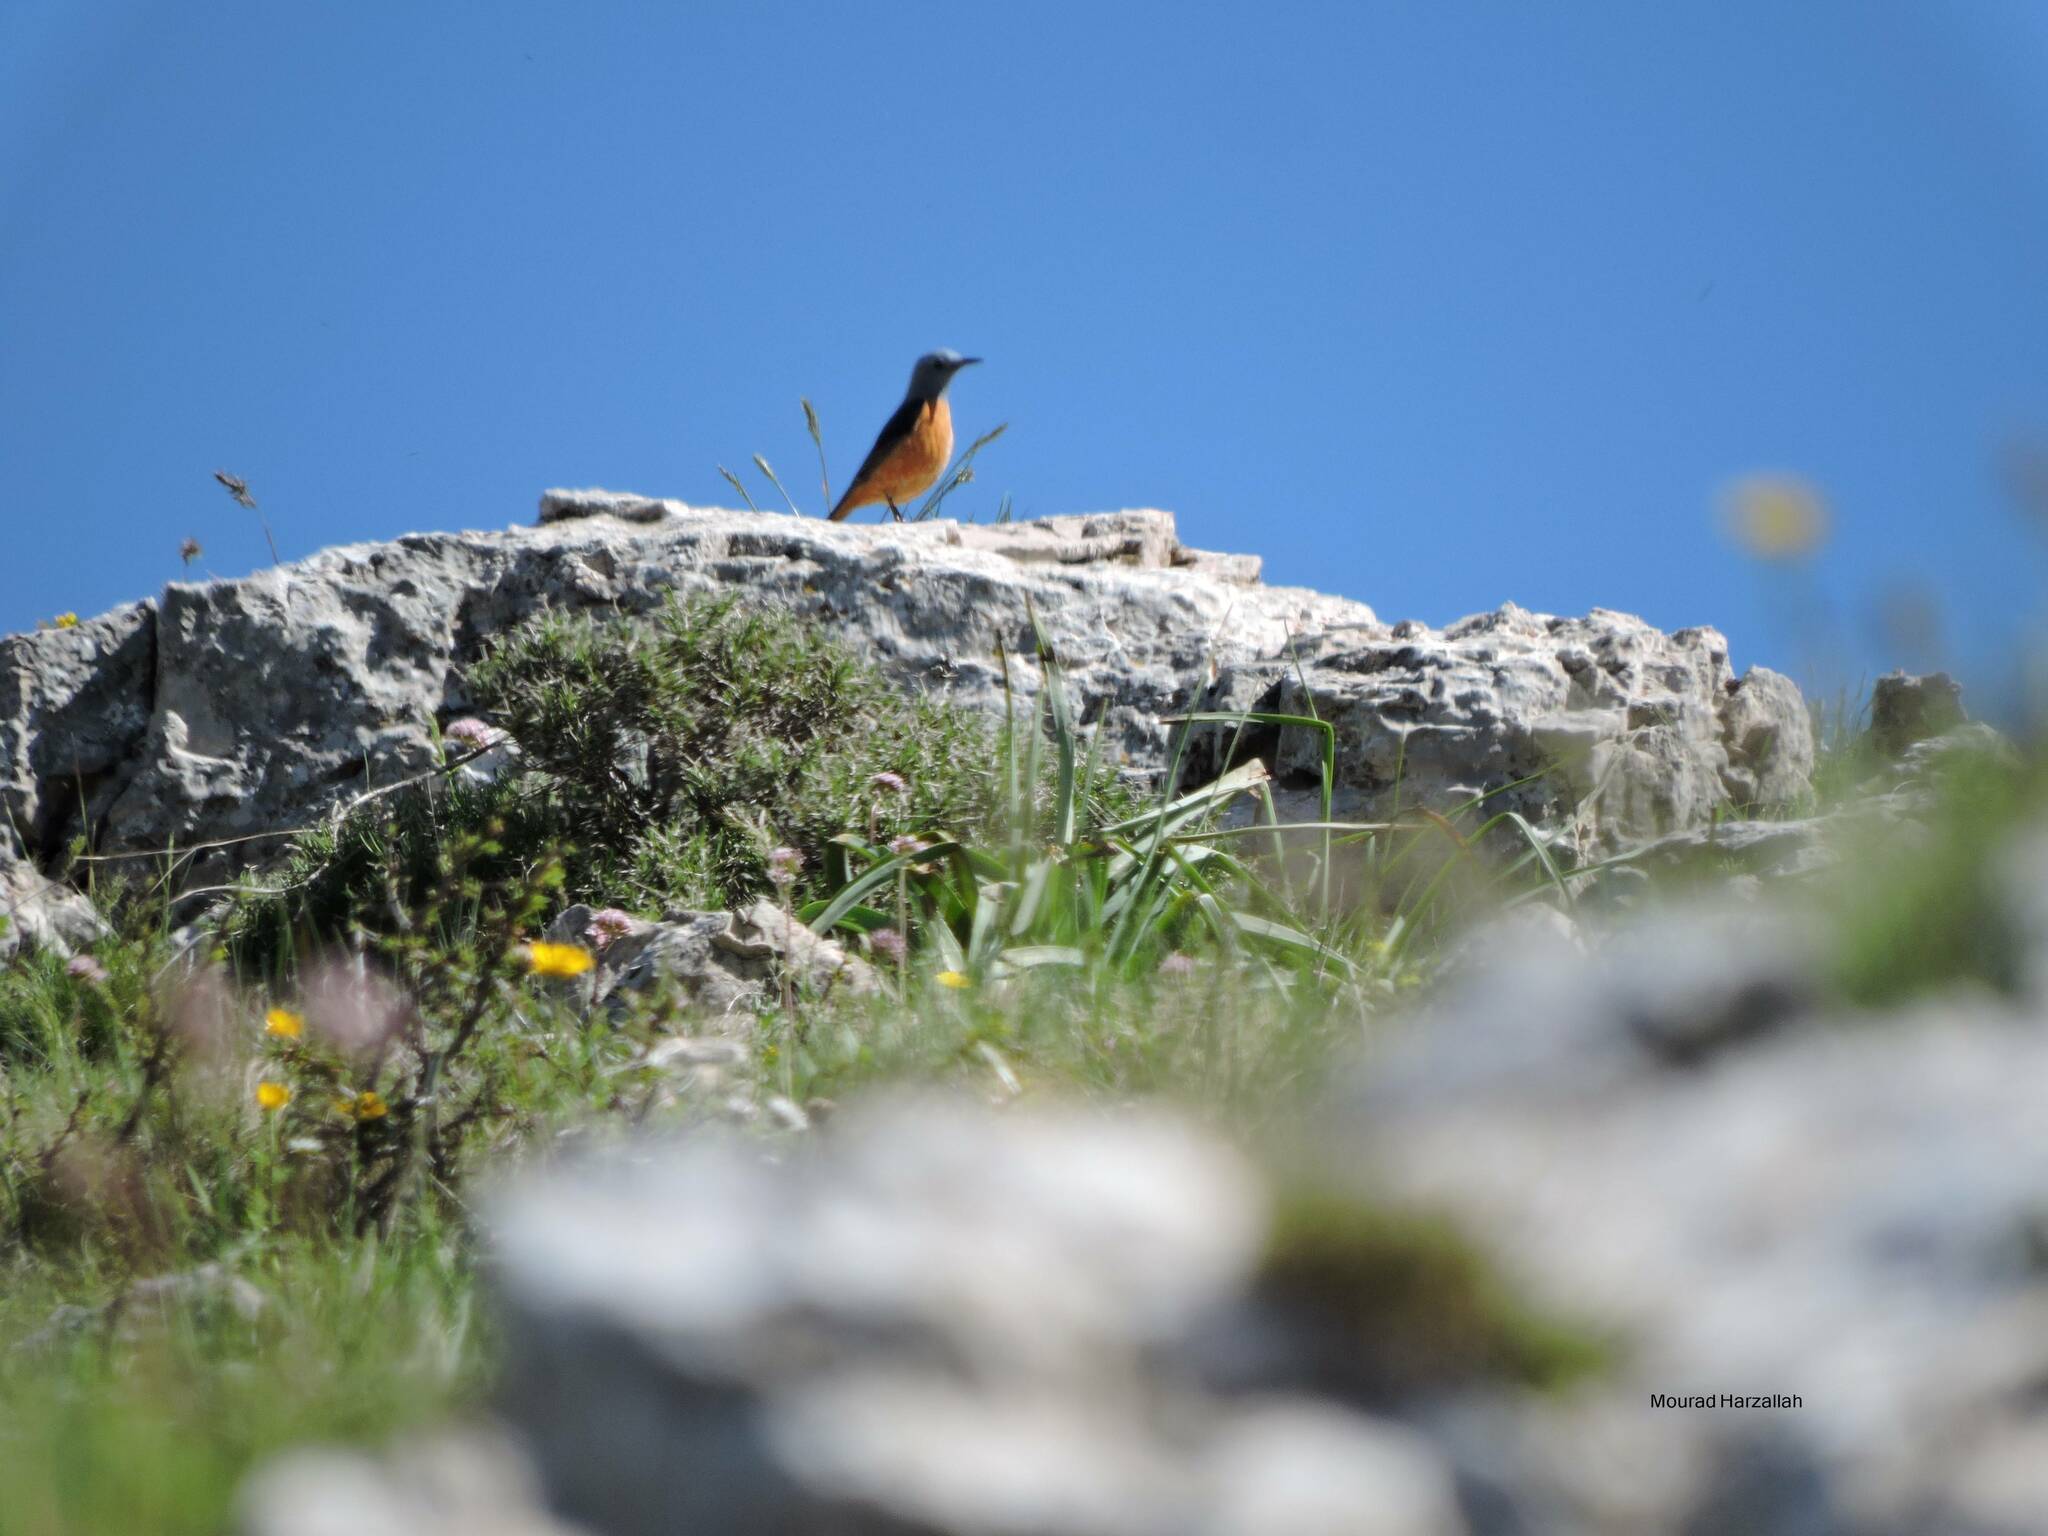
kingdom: Animalia
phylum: Chordata
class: Aves
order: Passeriformes
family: Muscicapidae
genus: Monticola
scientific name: Monticola saxatilis
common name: Rufous-tailed rock thrush
